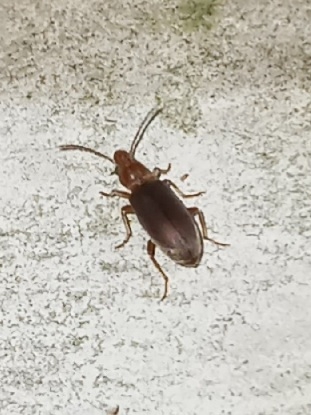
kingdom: Animalia
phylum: Arthropoda
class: Insecta
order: Coleoptera
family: Anthicidae
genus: Notoxus
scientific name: Notoxus murinipennis
